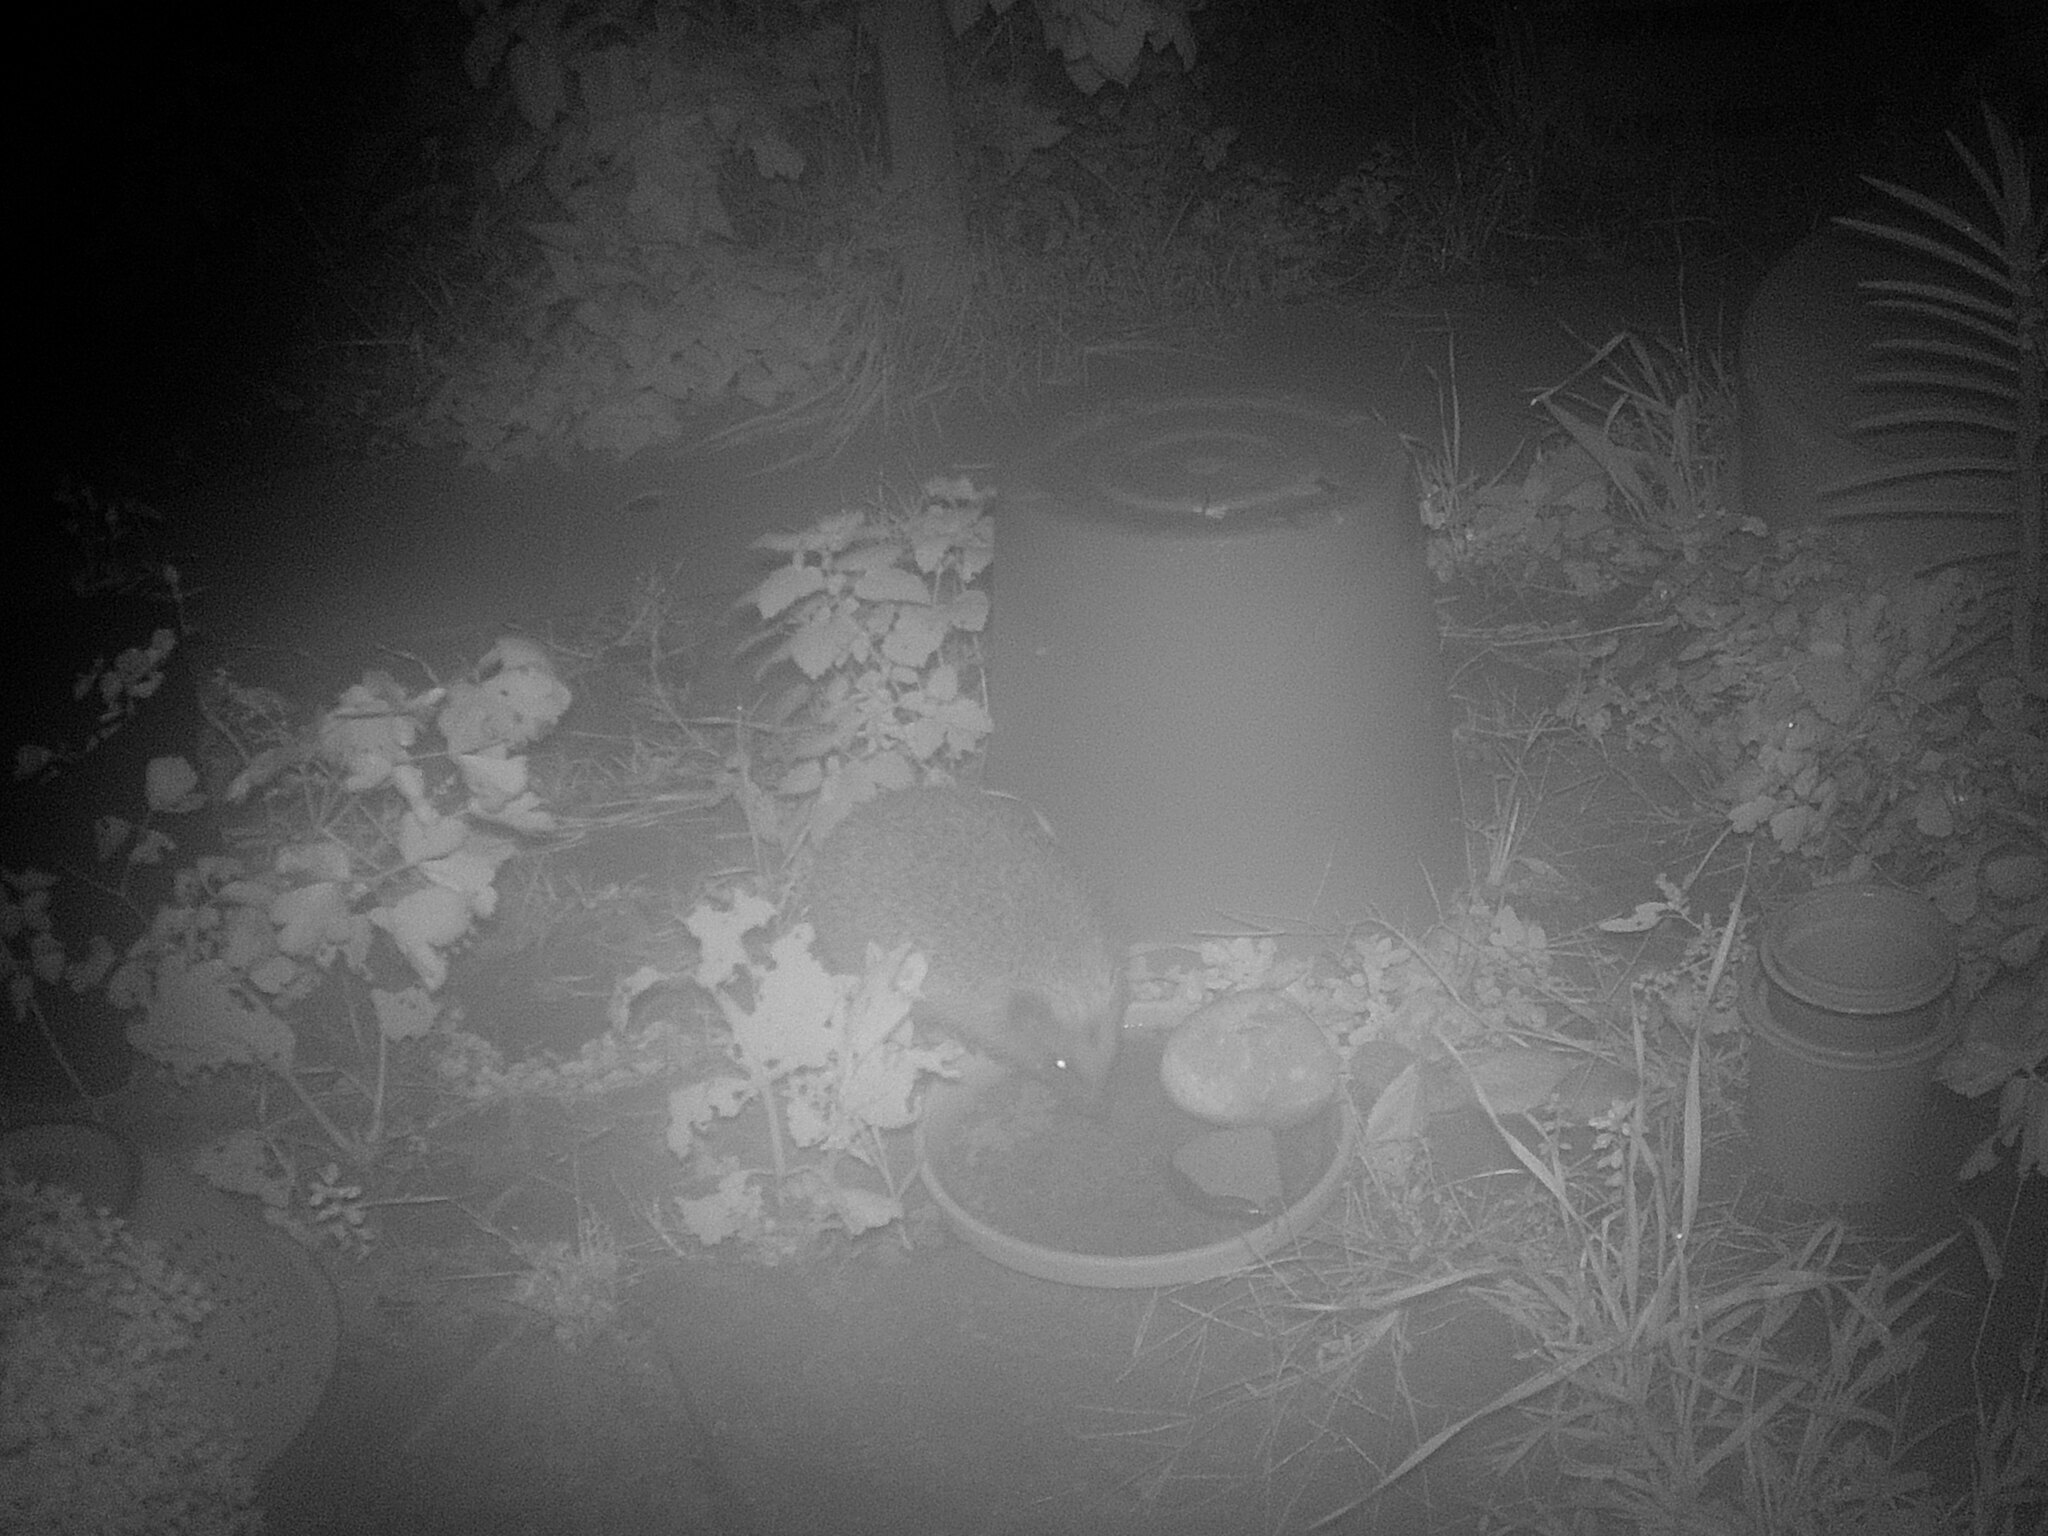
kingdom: Animalia
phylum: Chordata
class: Mammalia
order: Erinaceomorpha
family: Erinaceidae
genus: Erinaceus
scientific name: Erinaceus europaeus
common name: West european hedgehog
